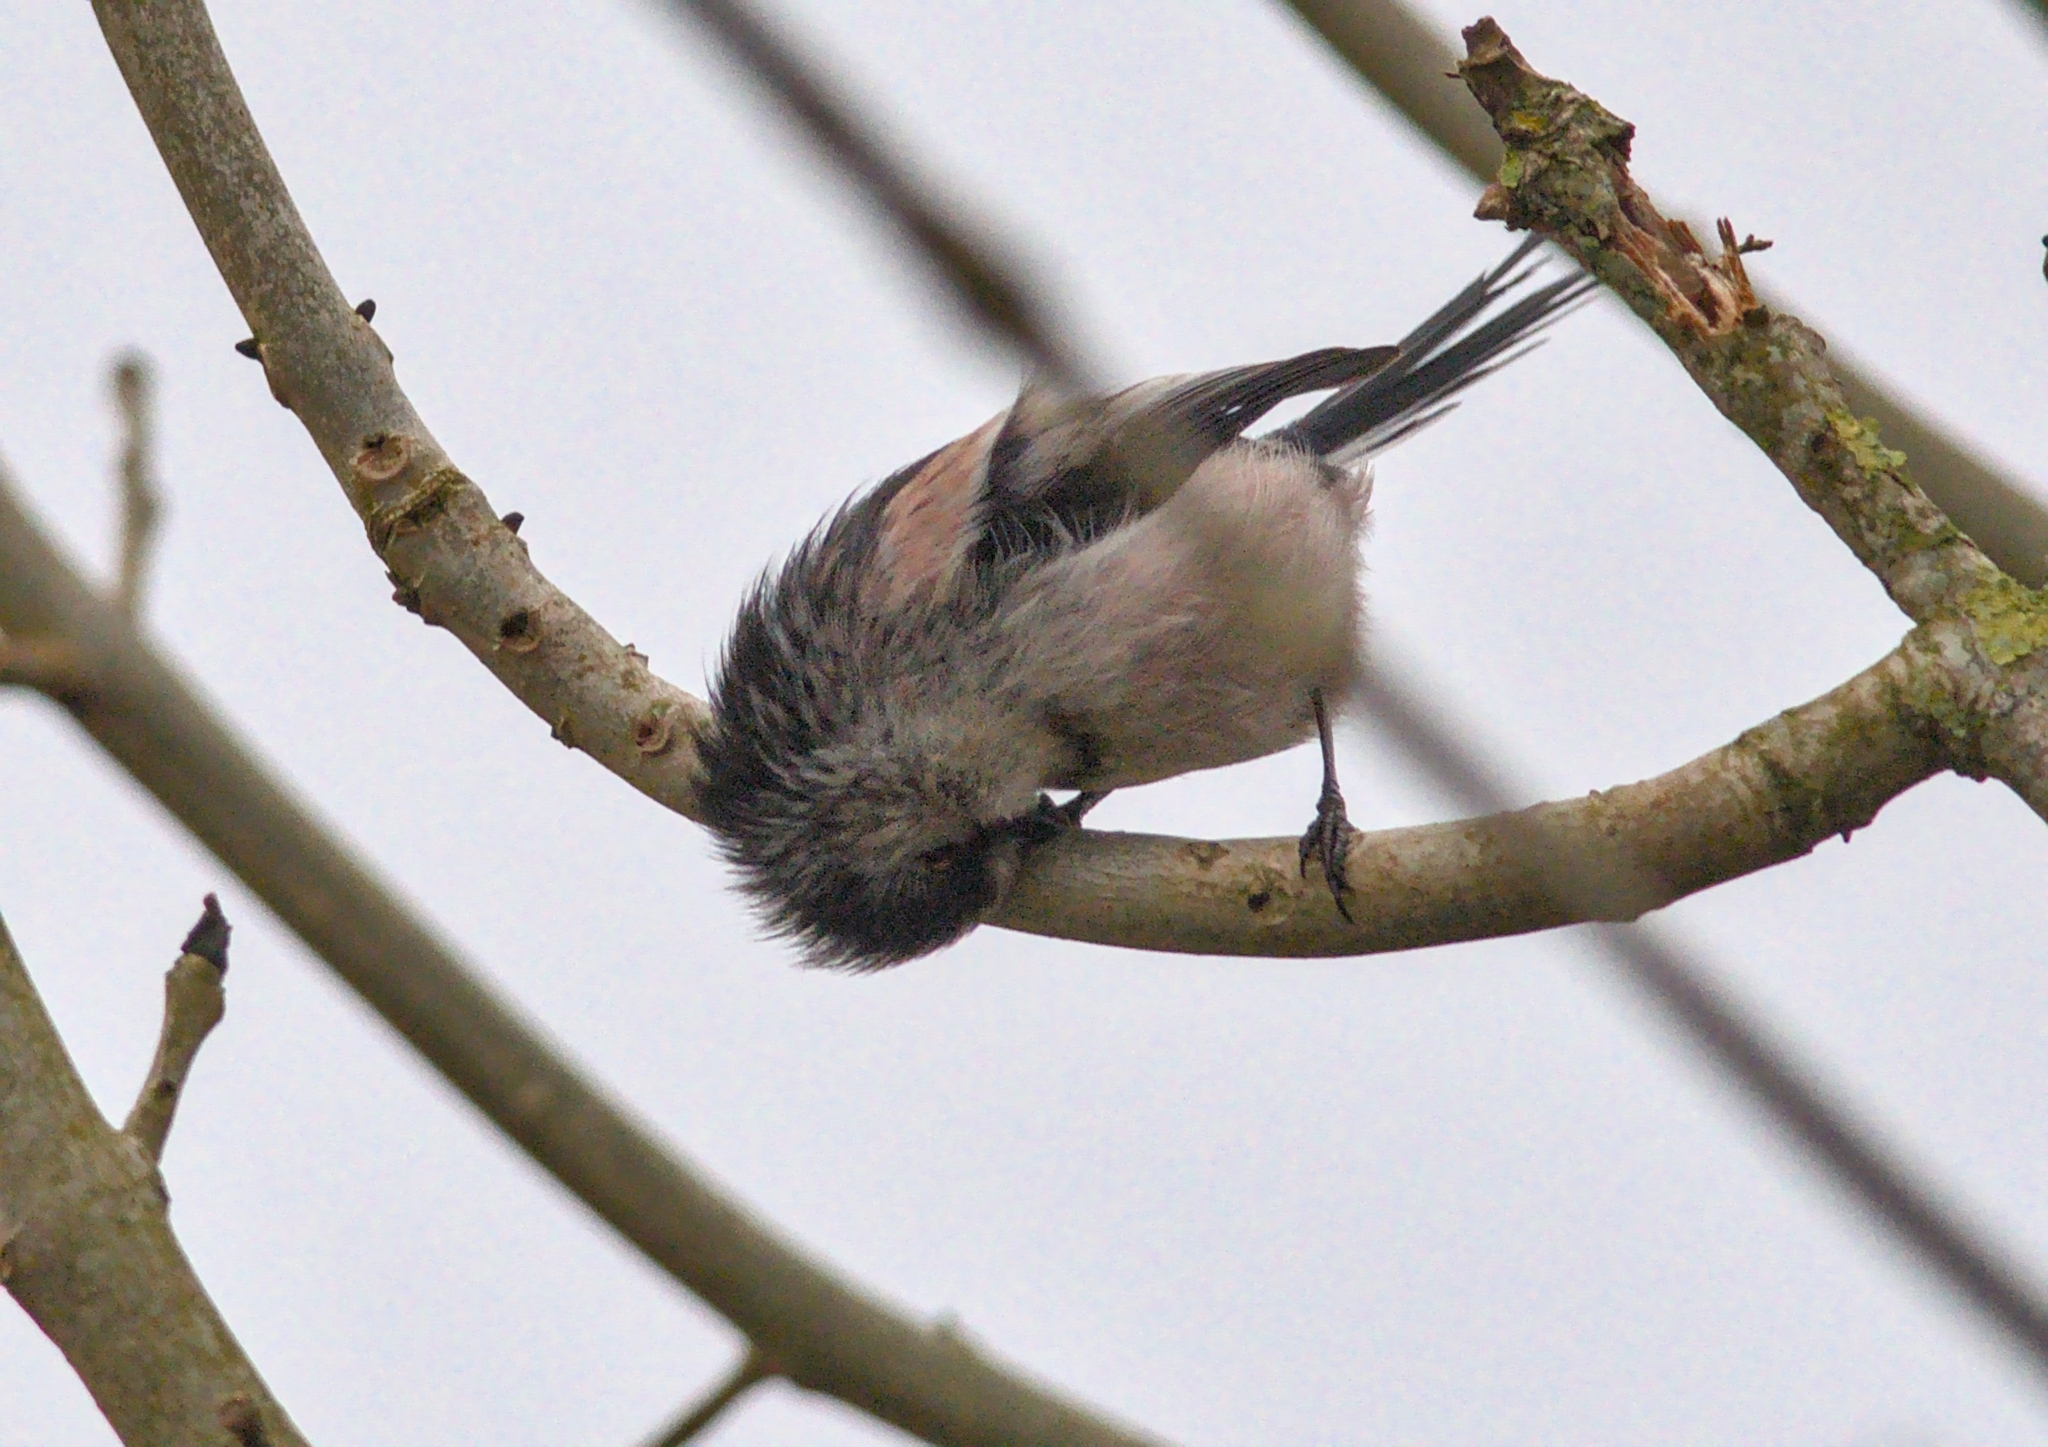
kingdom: Animalia
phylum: Chordata
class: Aves
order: Passeriformes
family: Aegithalidae
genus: Aegithalos
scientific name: Aegithalos caudatus
